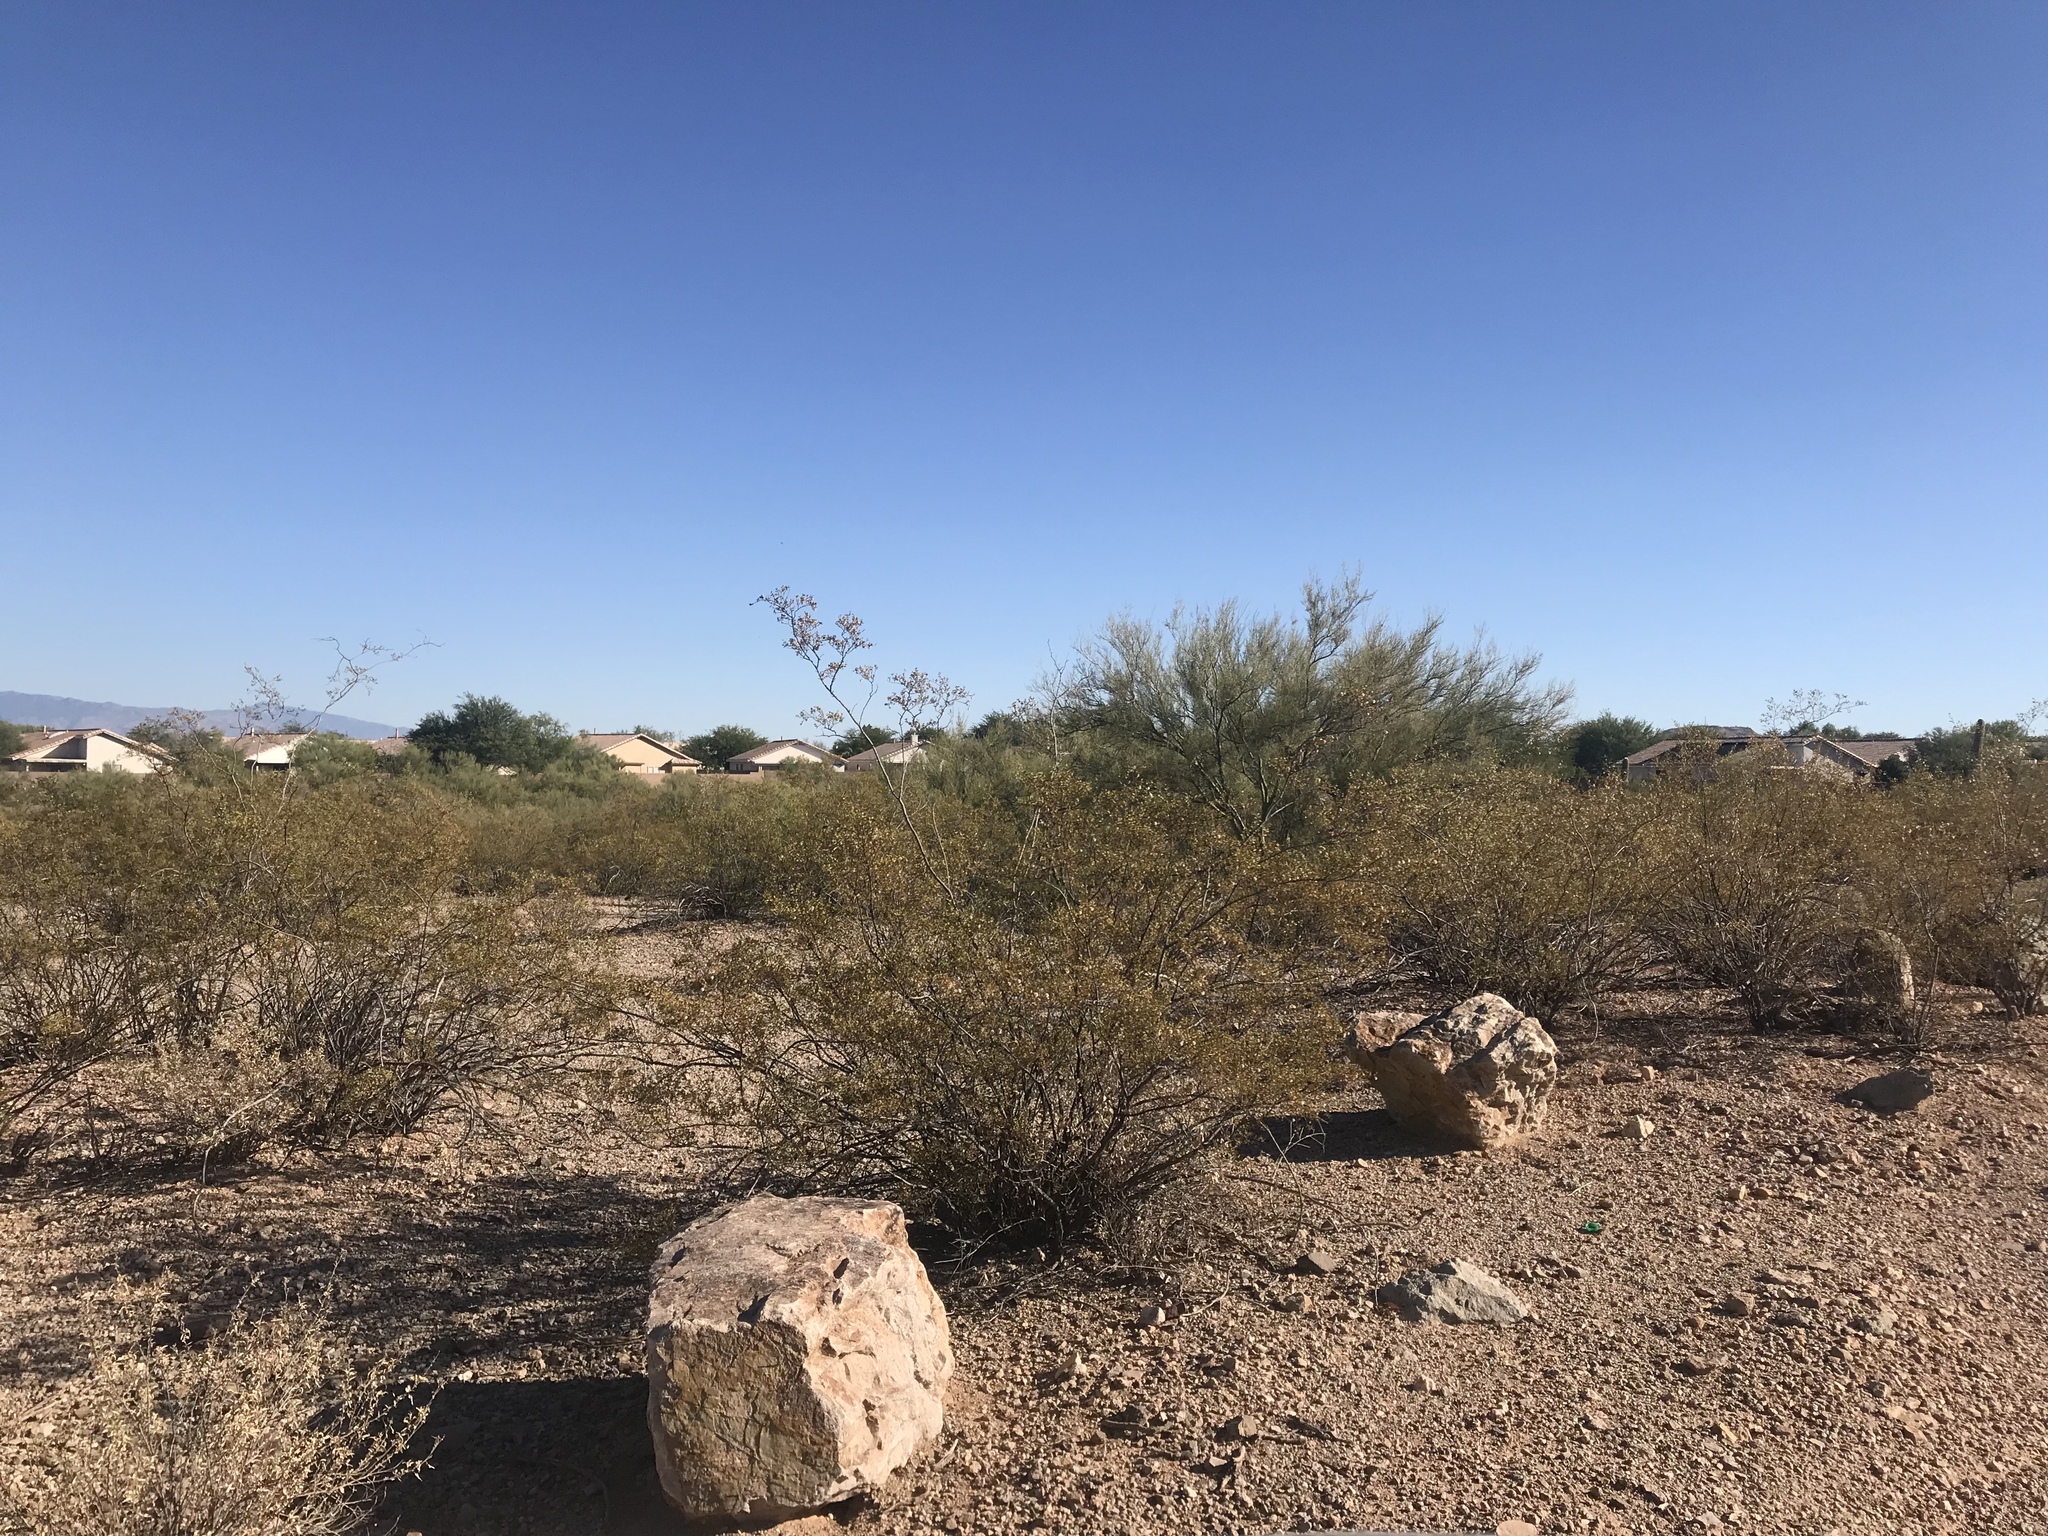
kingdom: Plantae
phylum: Tracheophyta
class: Magnoliopsida
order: Zygophyllales
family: Zygophyllaceae
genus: Larrea
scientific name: Larrea tridentata
